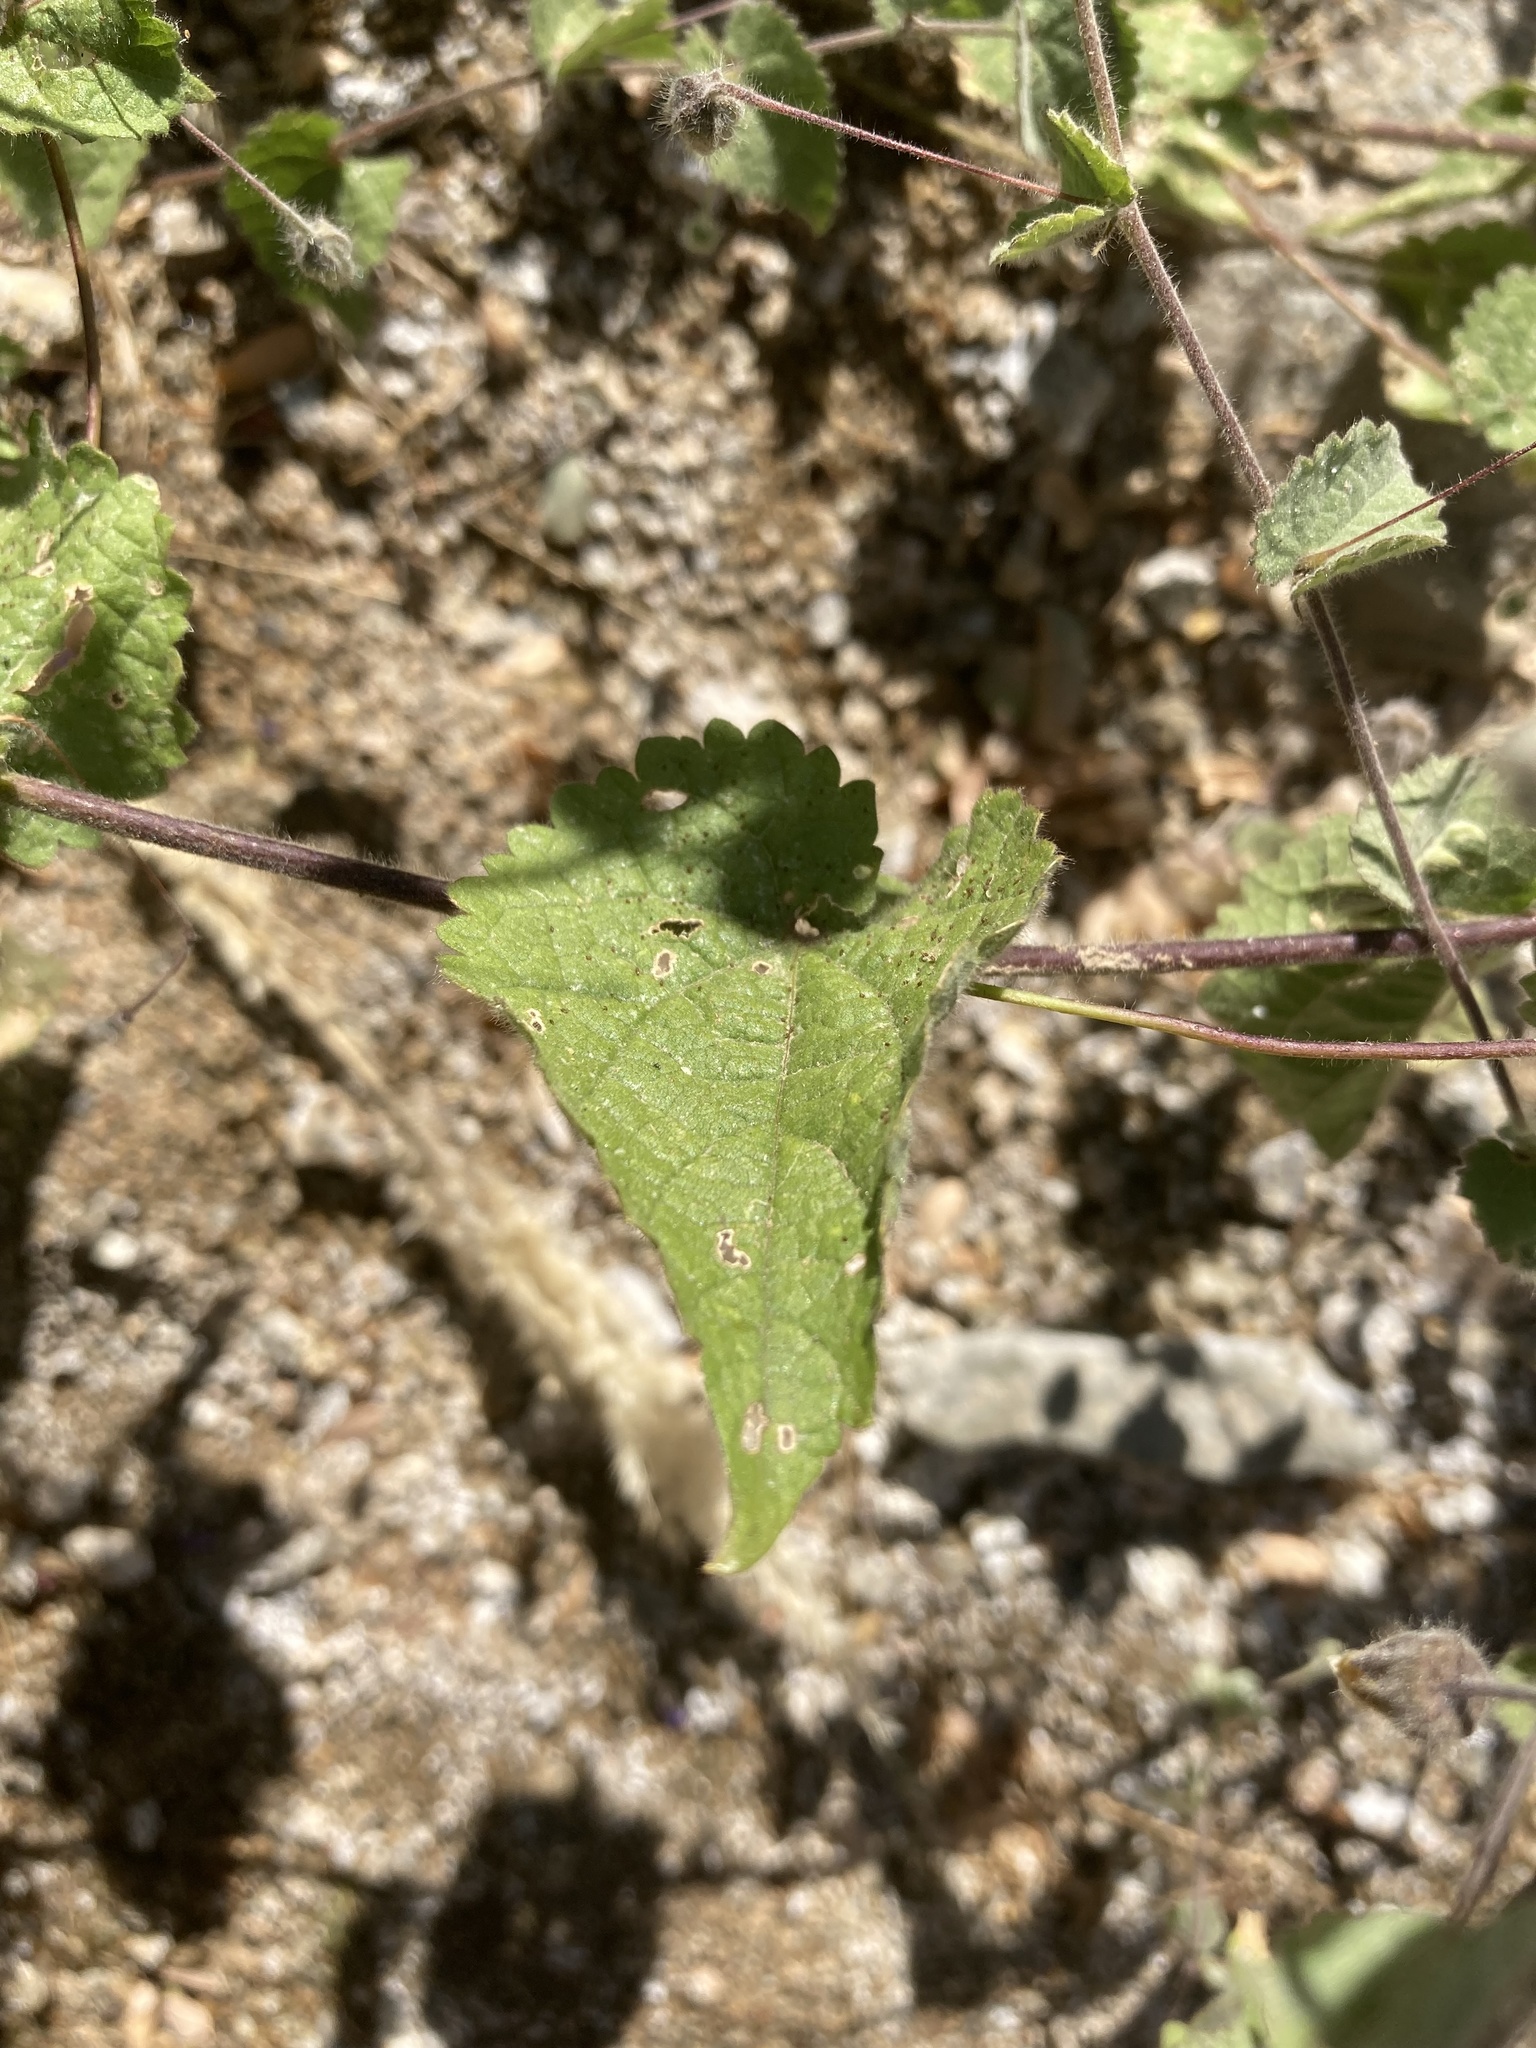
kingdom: Plantae
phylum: Tracheophyta
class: Magnoliopsida
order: Malvales
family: Malvaceae
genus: Herissantia
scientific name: Herissantia crispa
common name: Bladdermallow
